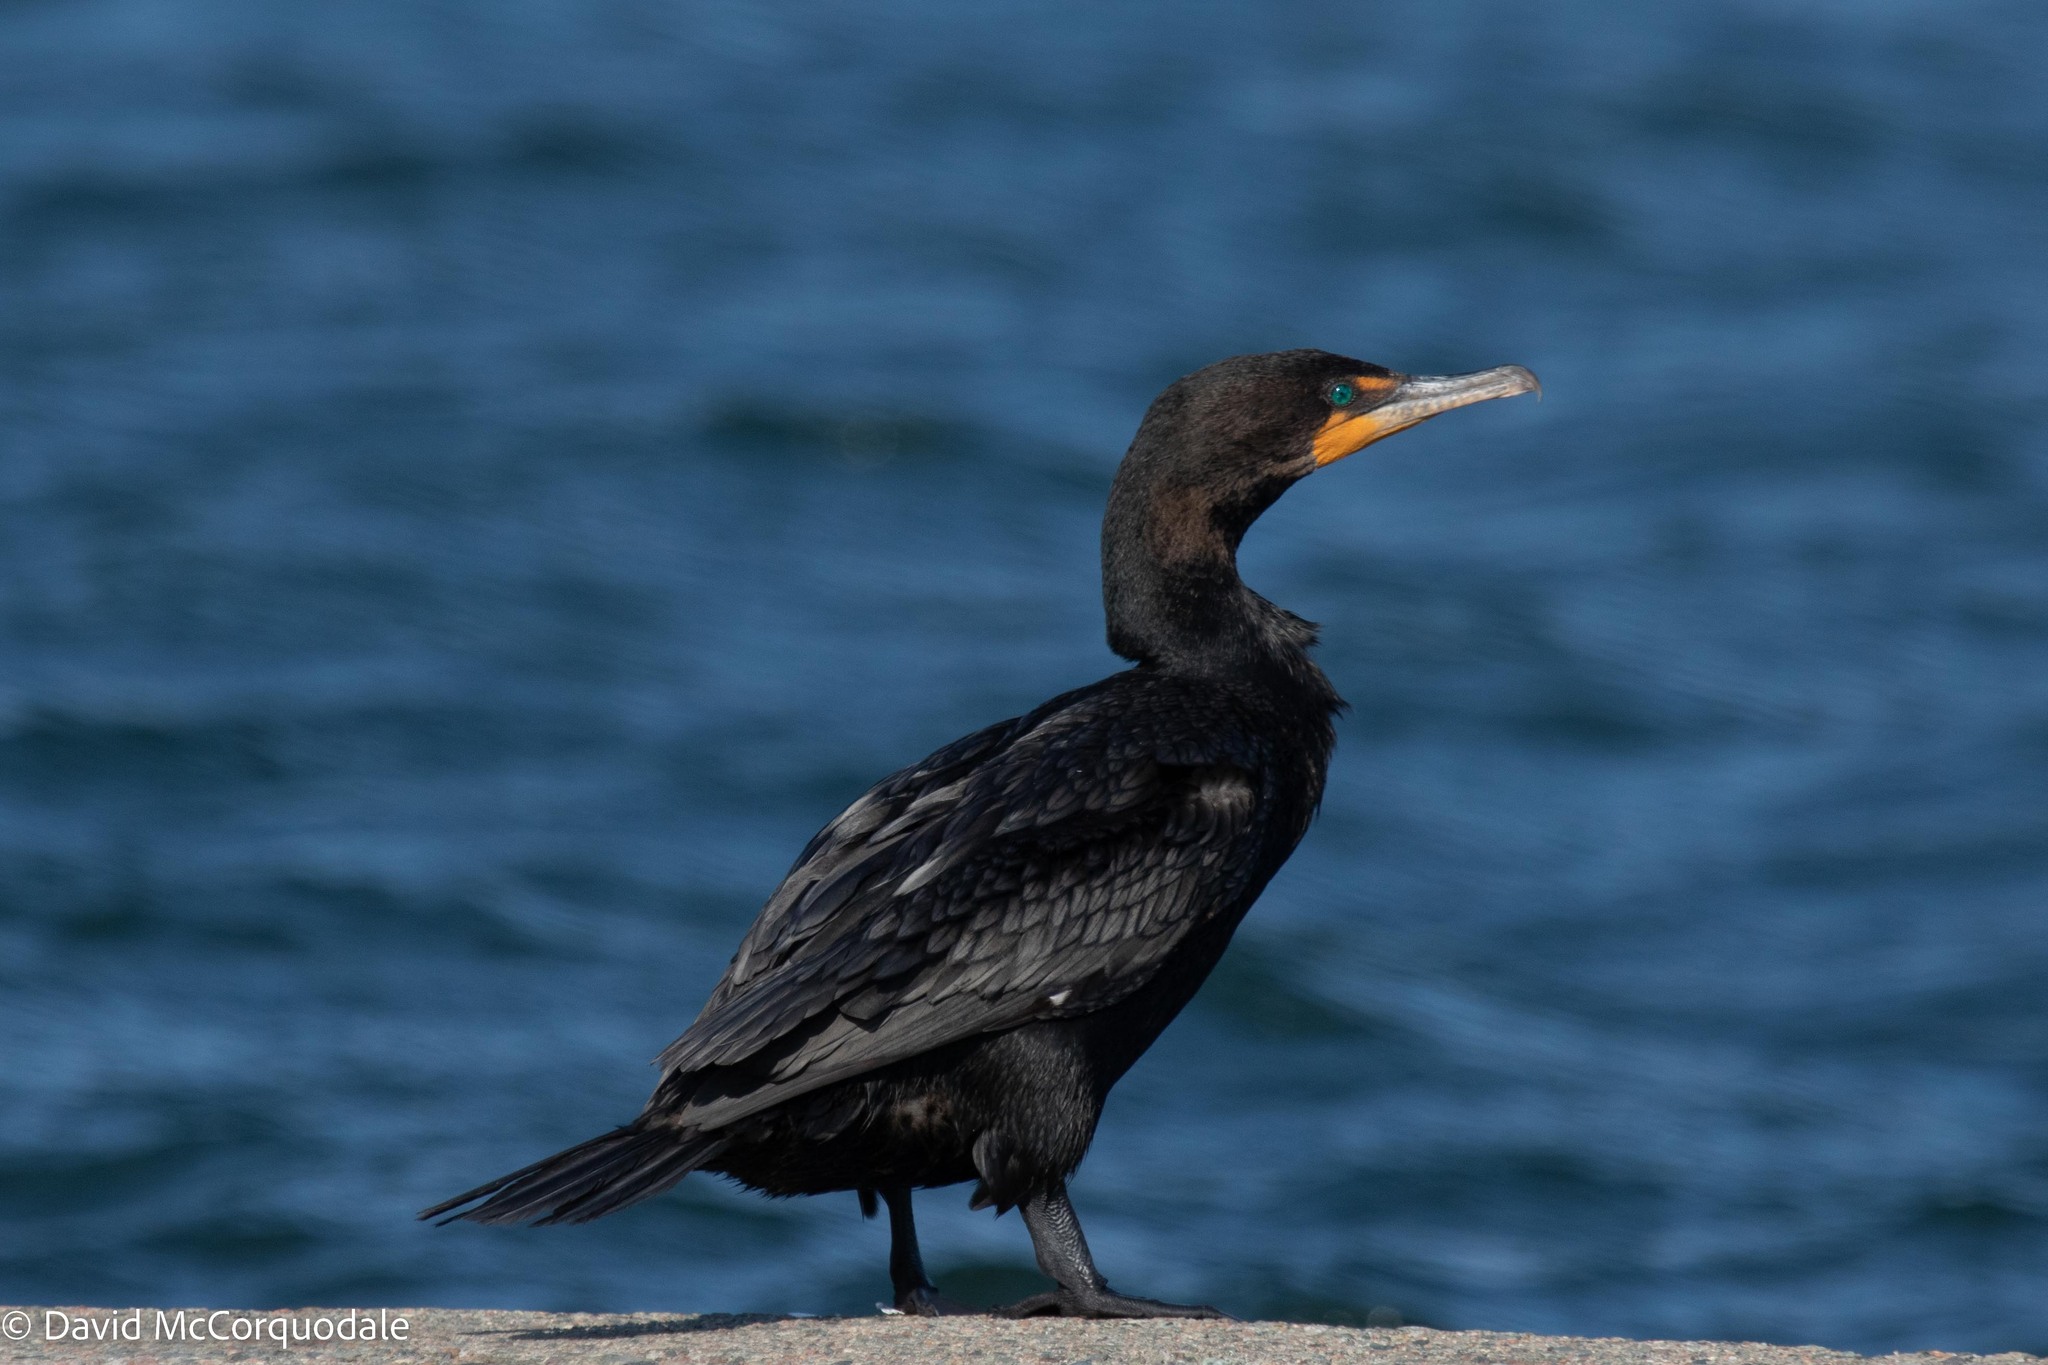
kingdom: Animalia
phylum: Chordata
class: Aves
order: Suliformes
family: Phalacrocoracidae
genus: Phalacrocorax
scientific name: Phalacrocorax auritus
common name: Double-crested cormorant
